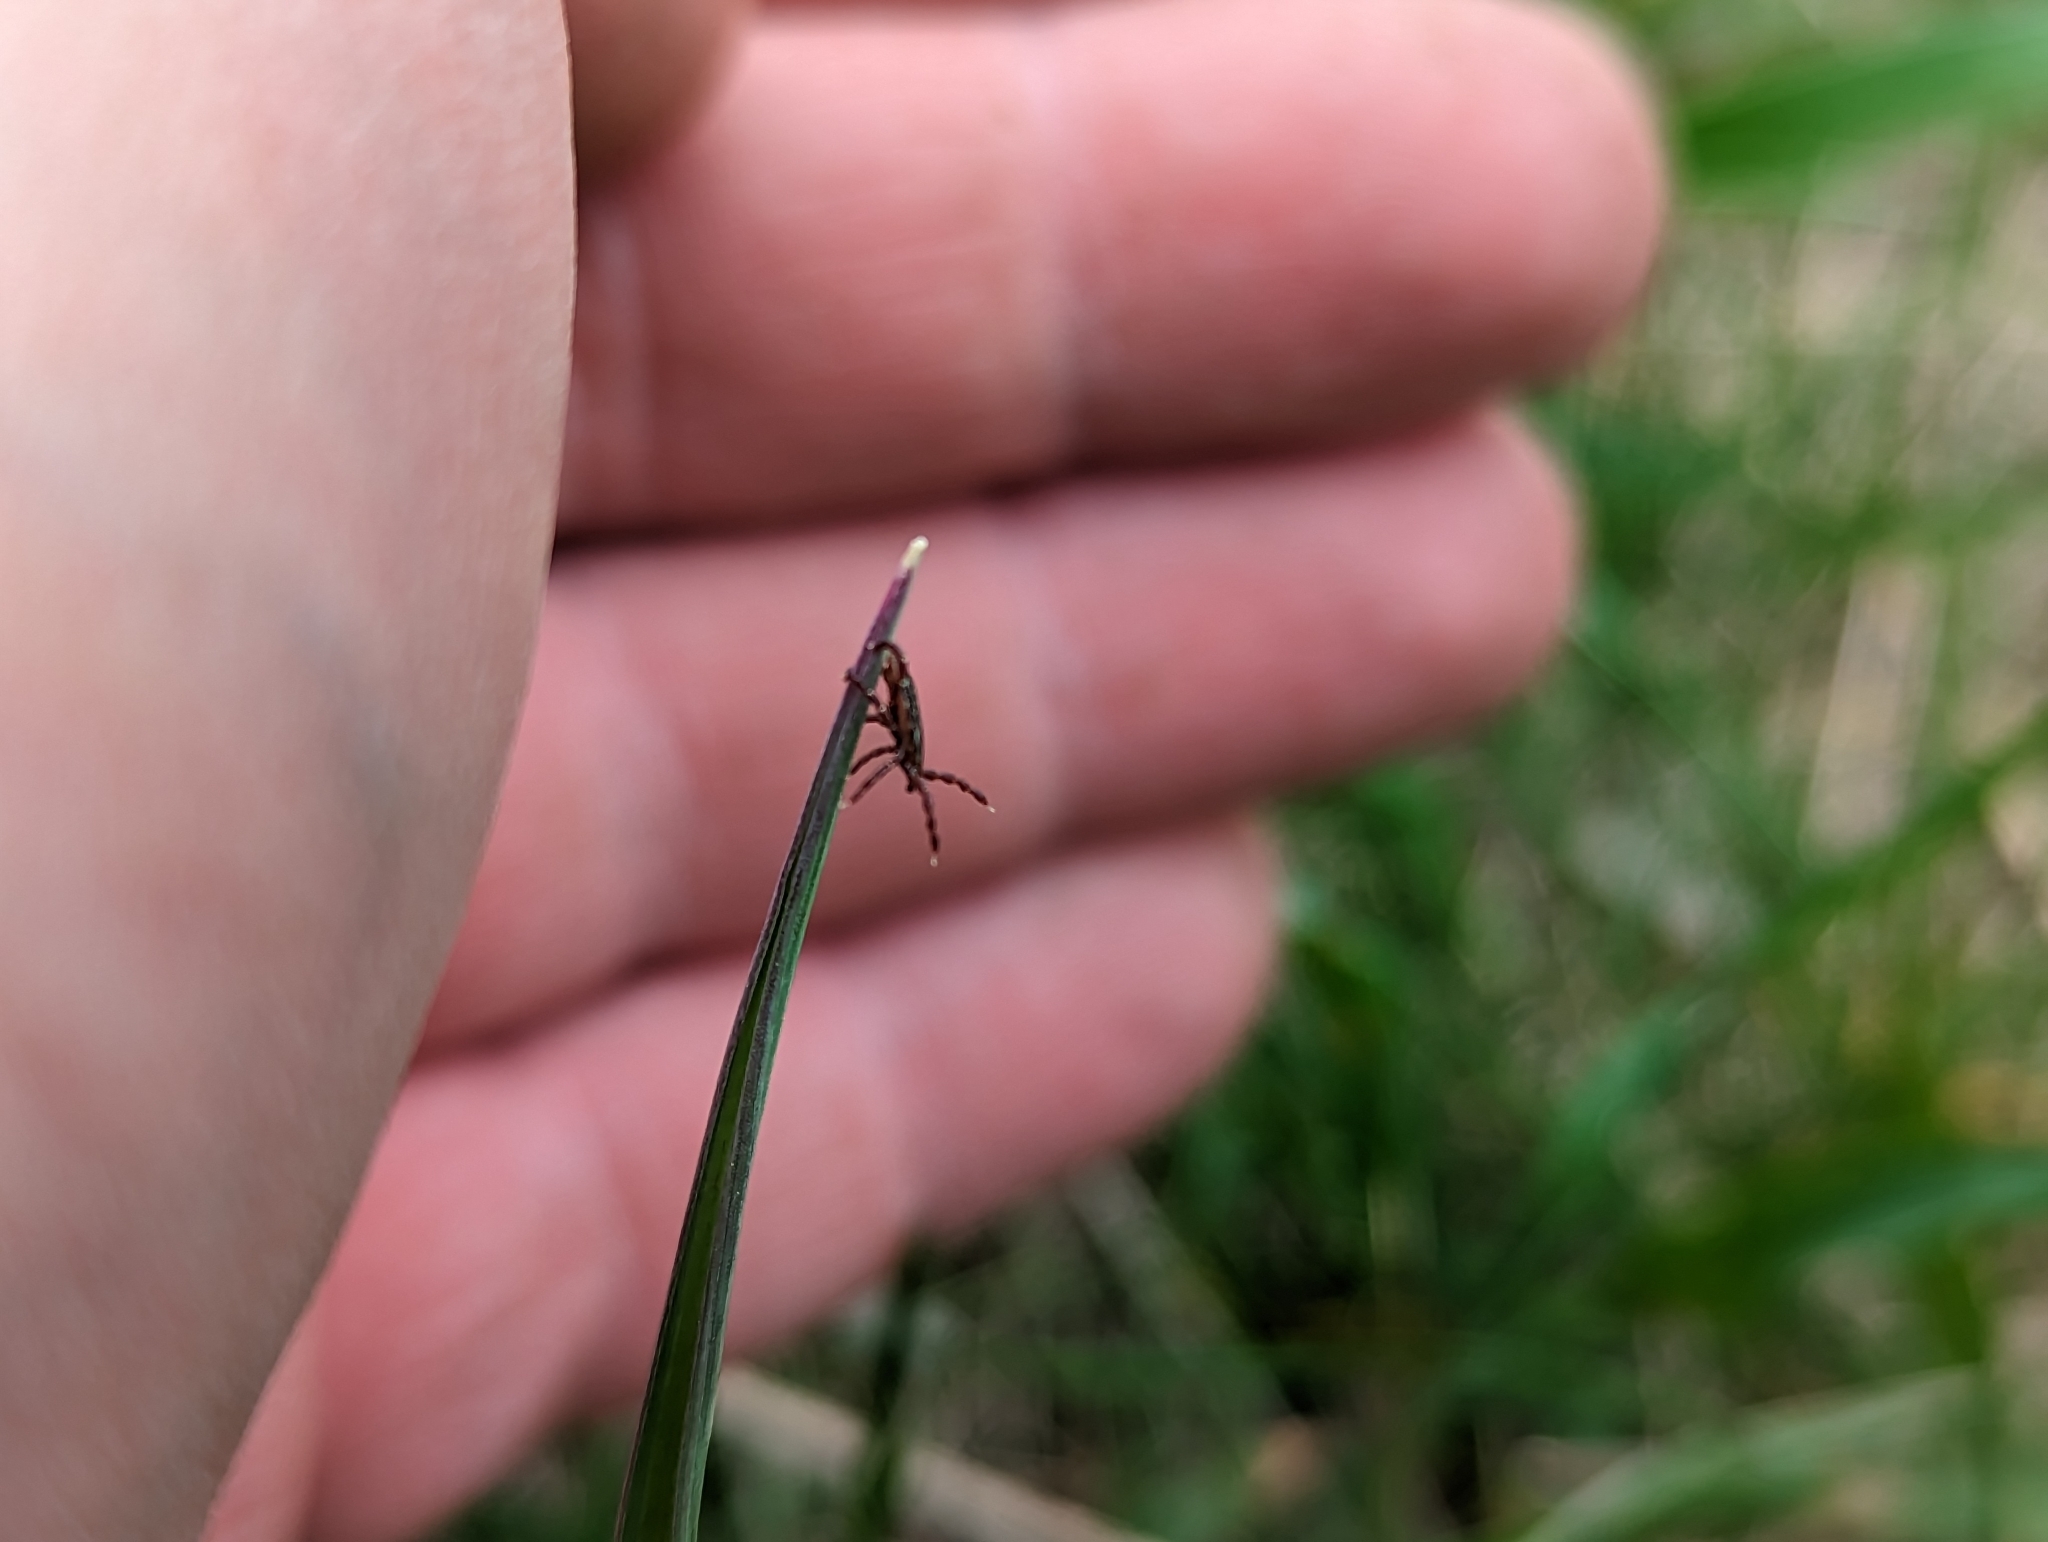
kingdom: Animalia
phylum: Arthropoda
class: Arachnida
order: Ixodida
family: Ixodidae
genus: Dermacentor
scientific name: Dermacentor variabilis
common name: American dog tick
